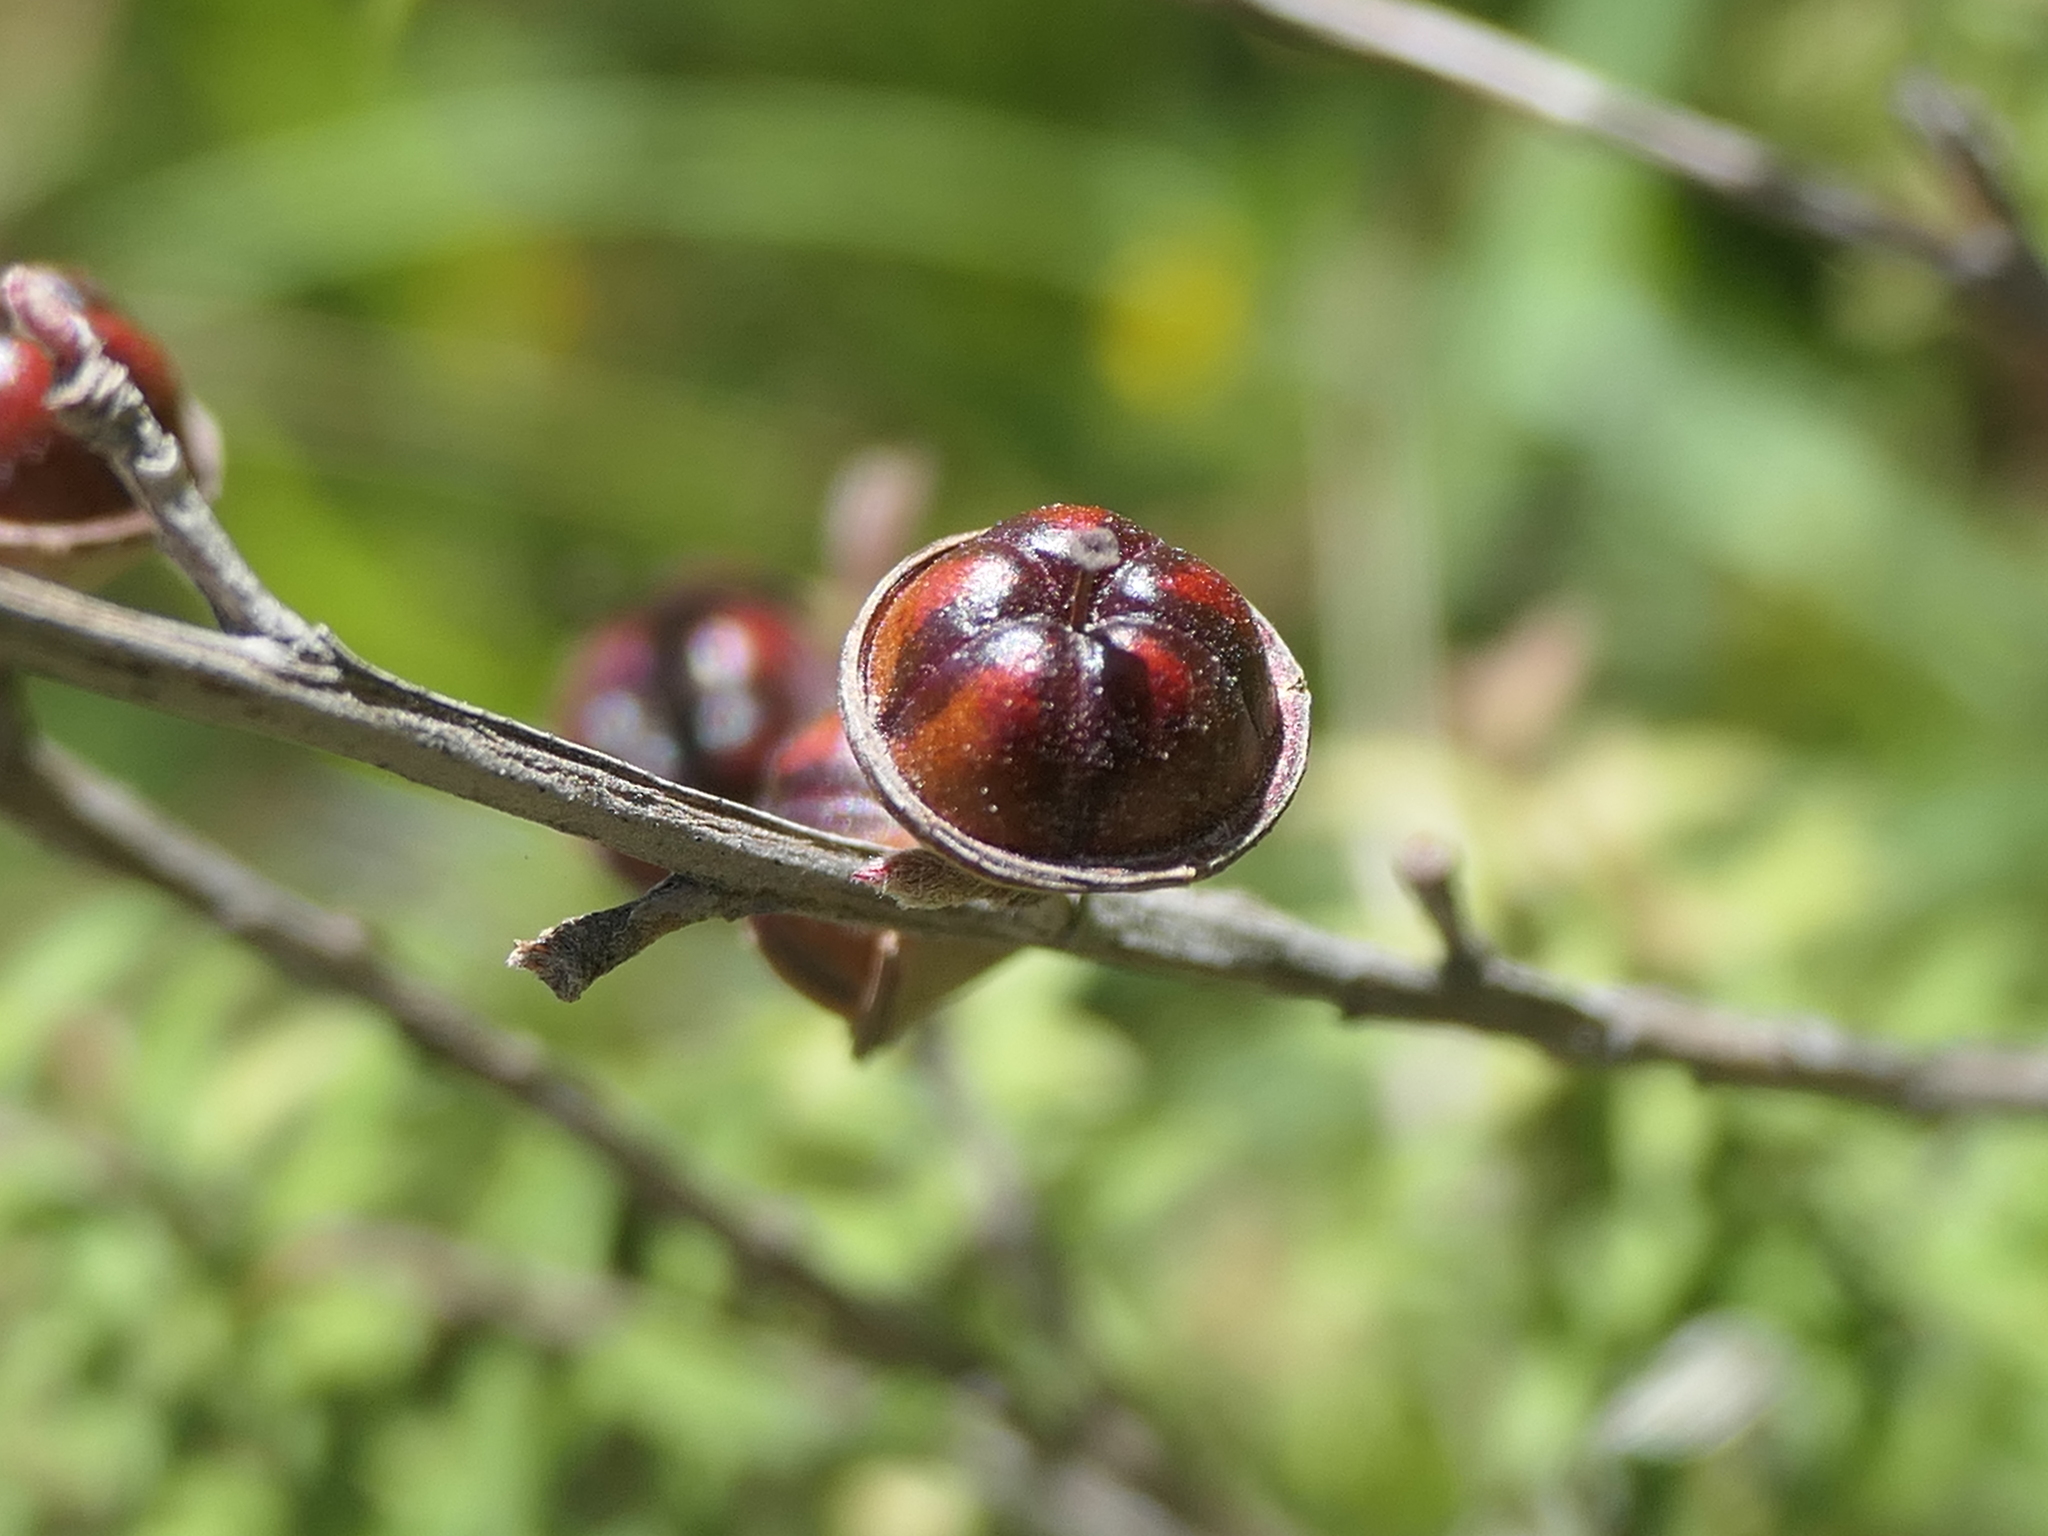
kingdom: Plantae
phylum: Tracheophyta
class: Magnoliopsida
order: Myrtales
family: Myrtaceae
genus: Leptospermum
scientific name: Leptospermum scoparium
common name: Broom tea-tree
